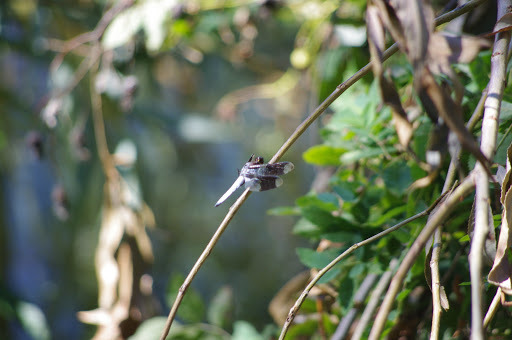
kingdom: Animalia
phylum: Arthropoda
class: Insecta
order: Odonata
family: Libellulidae
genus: Plathemis
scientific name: Plathemis lydia
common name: Common whitetail
